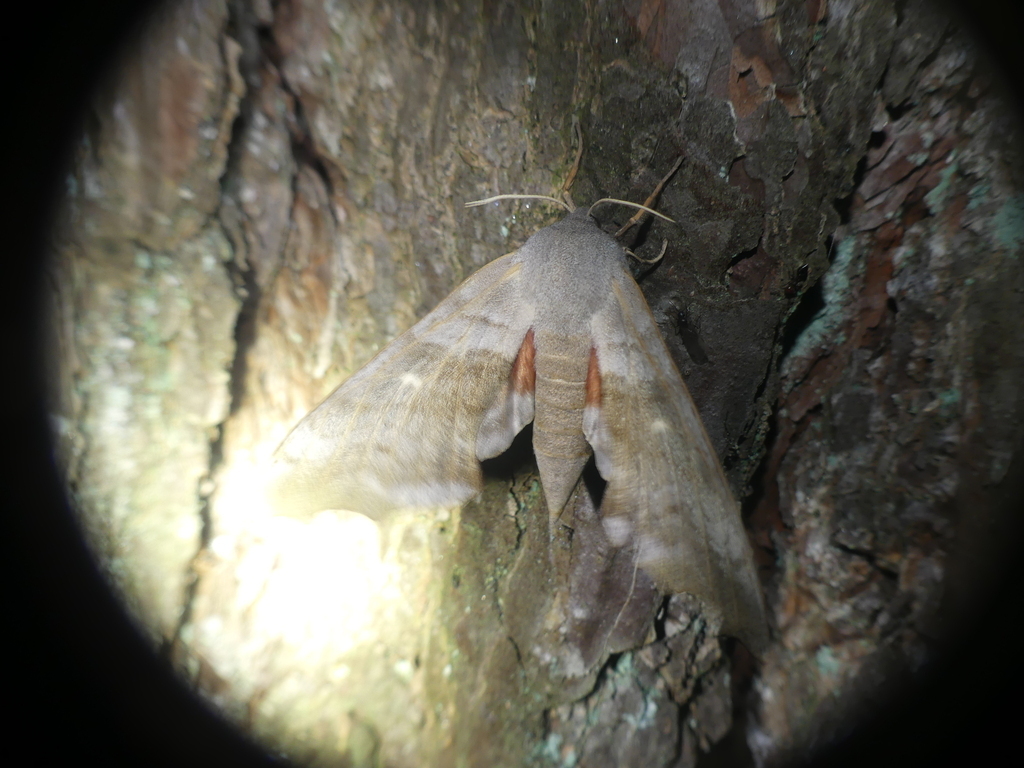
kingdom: Animalia
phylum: Arthropoda
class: Insecta
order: Lepidoptera
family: Sphingidae
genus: Laothoe
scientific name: Laothoe populi
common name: Poplar hawk-moth
